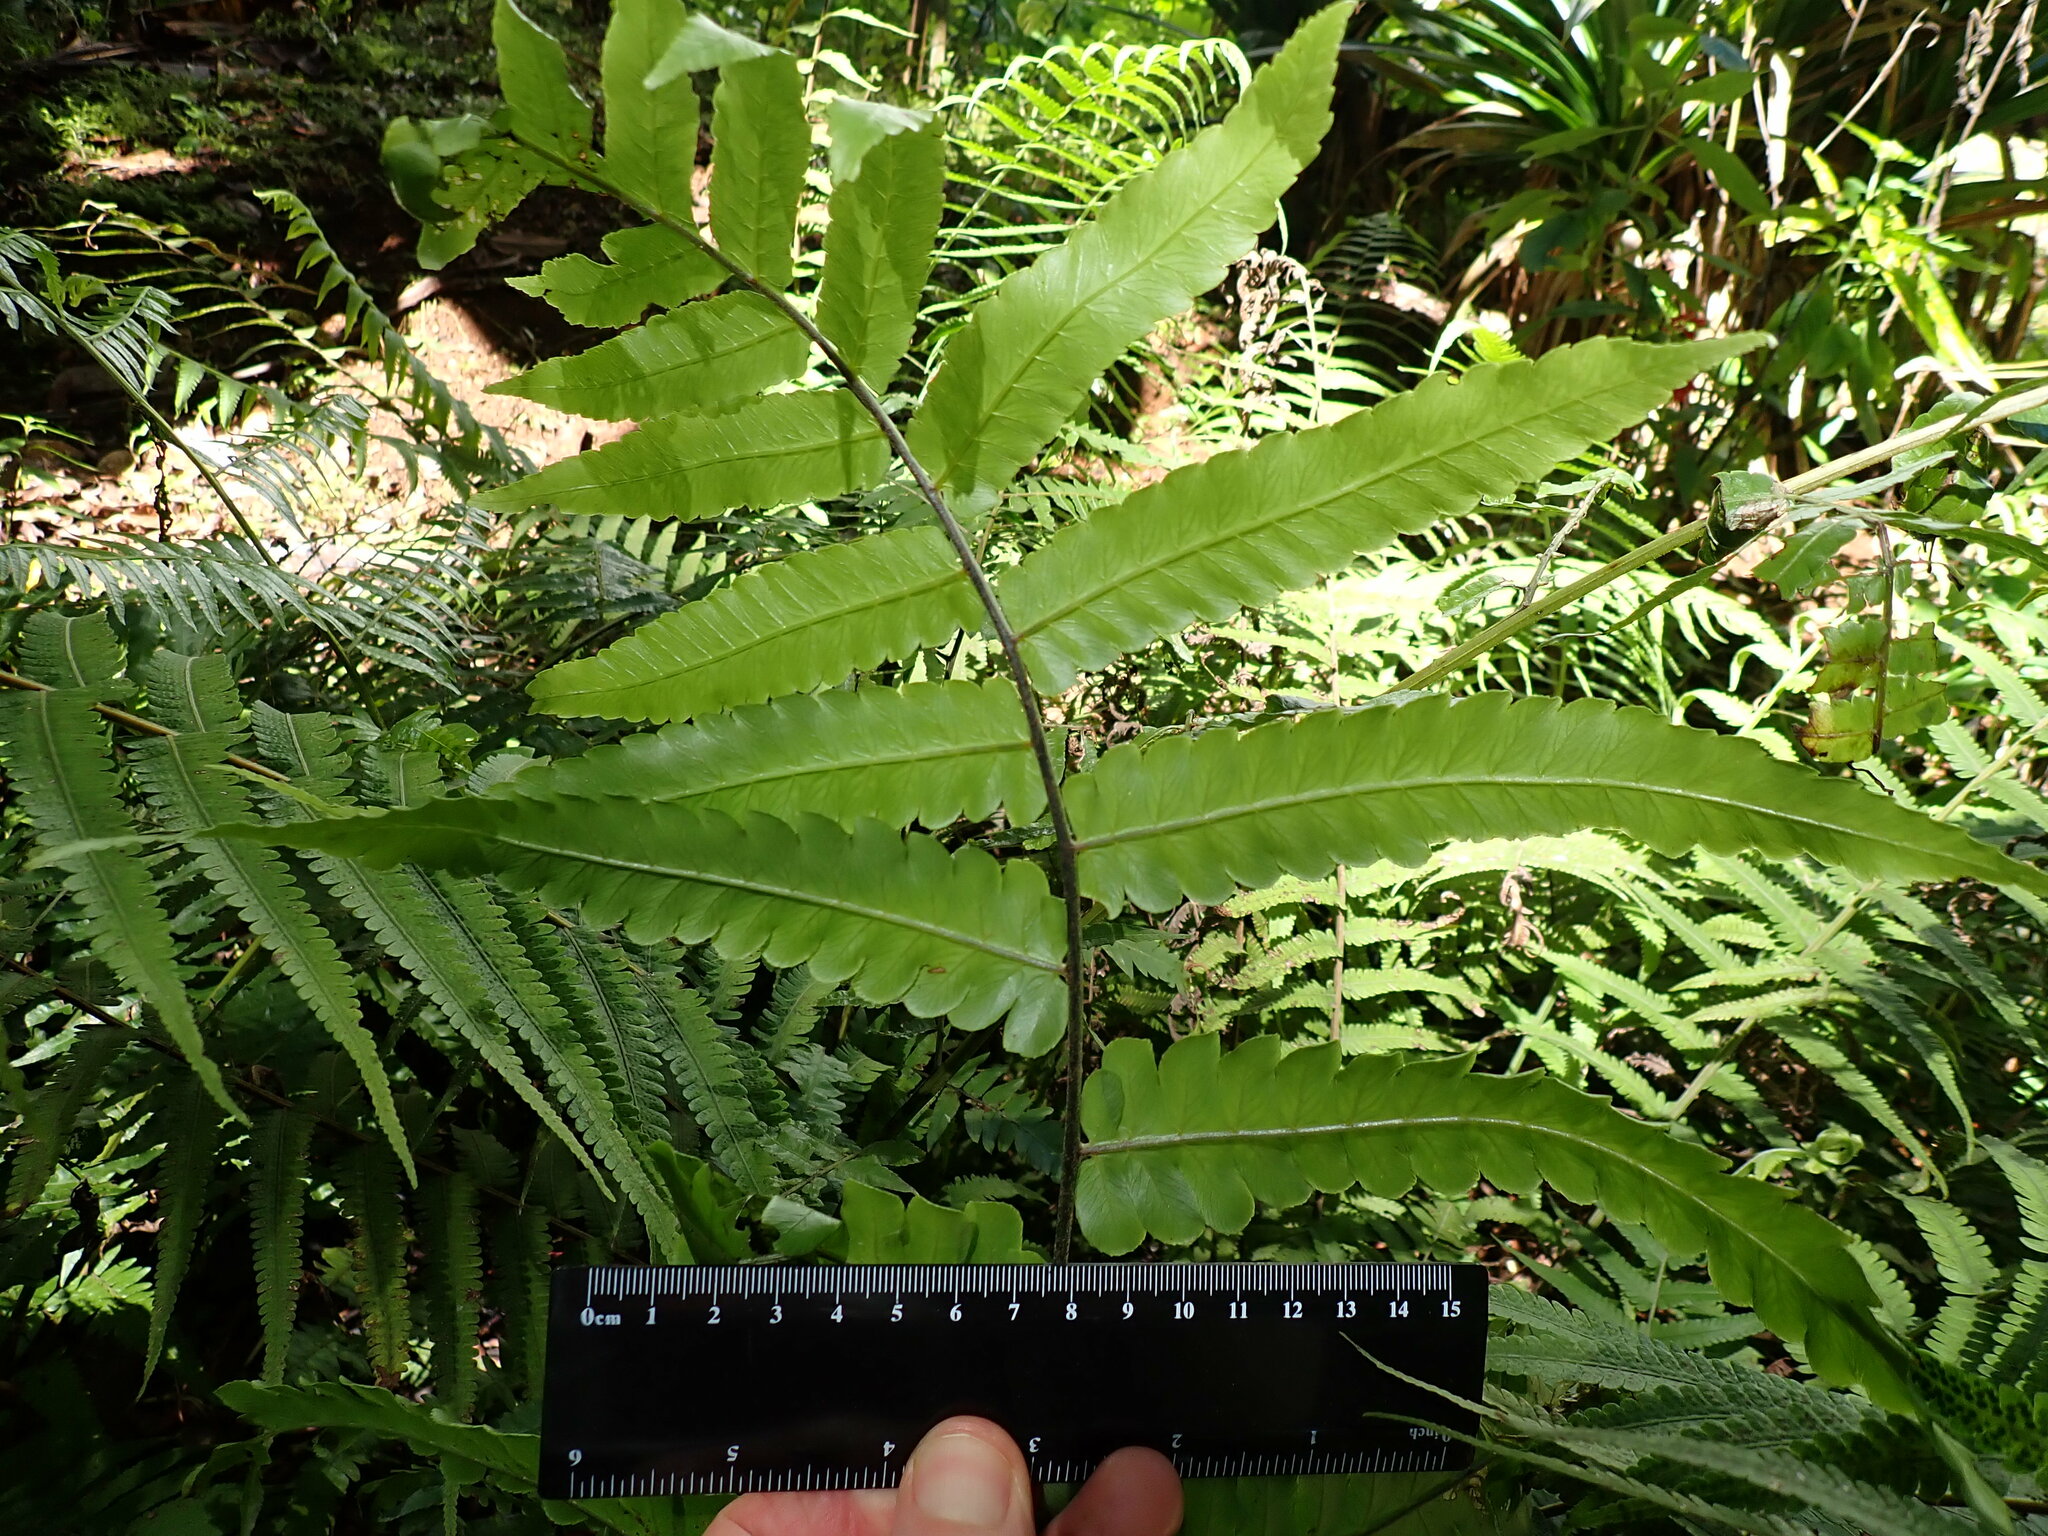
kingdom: Plantae
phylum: Tracheophyta
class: Polypodiopsida
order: Polypodiales
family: Athyriaceae
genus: Diplazium
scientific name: Diplazium dilatatum
